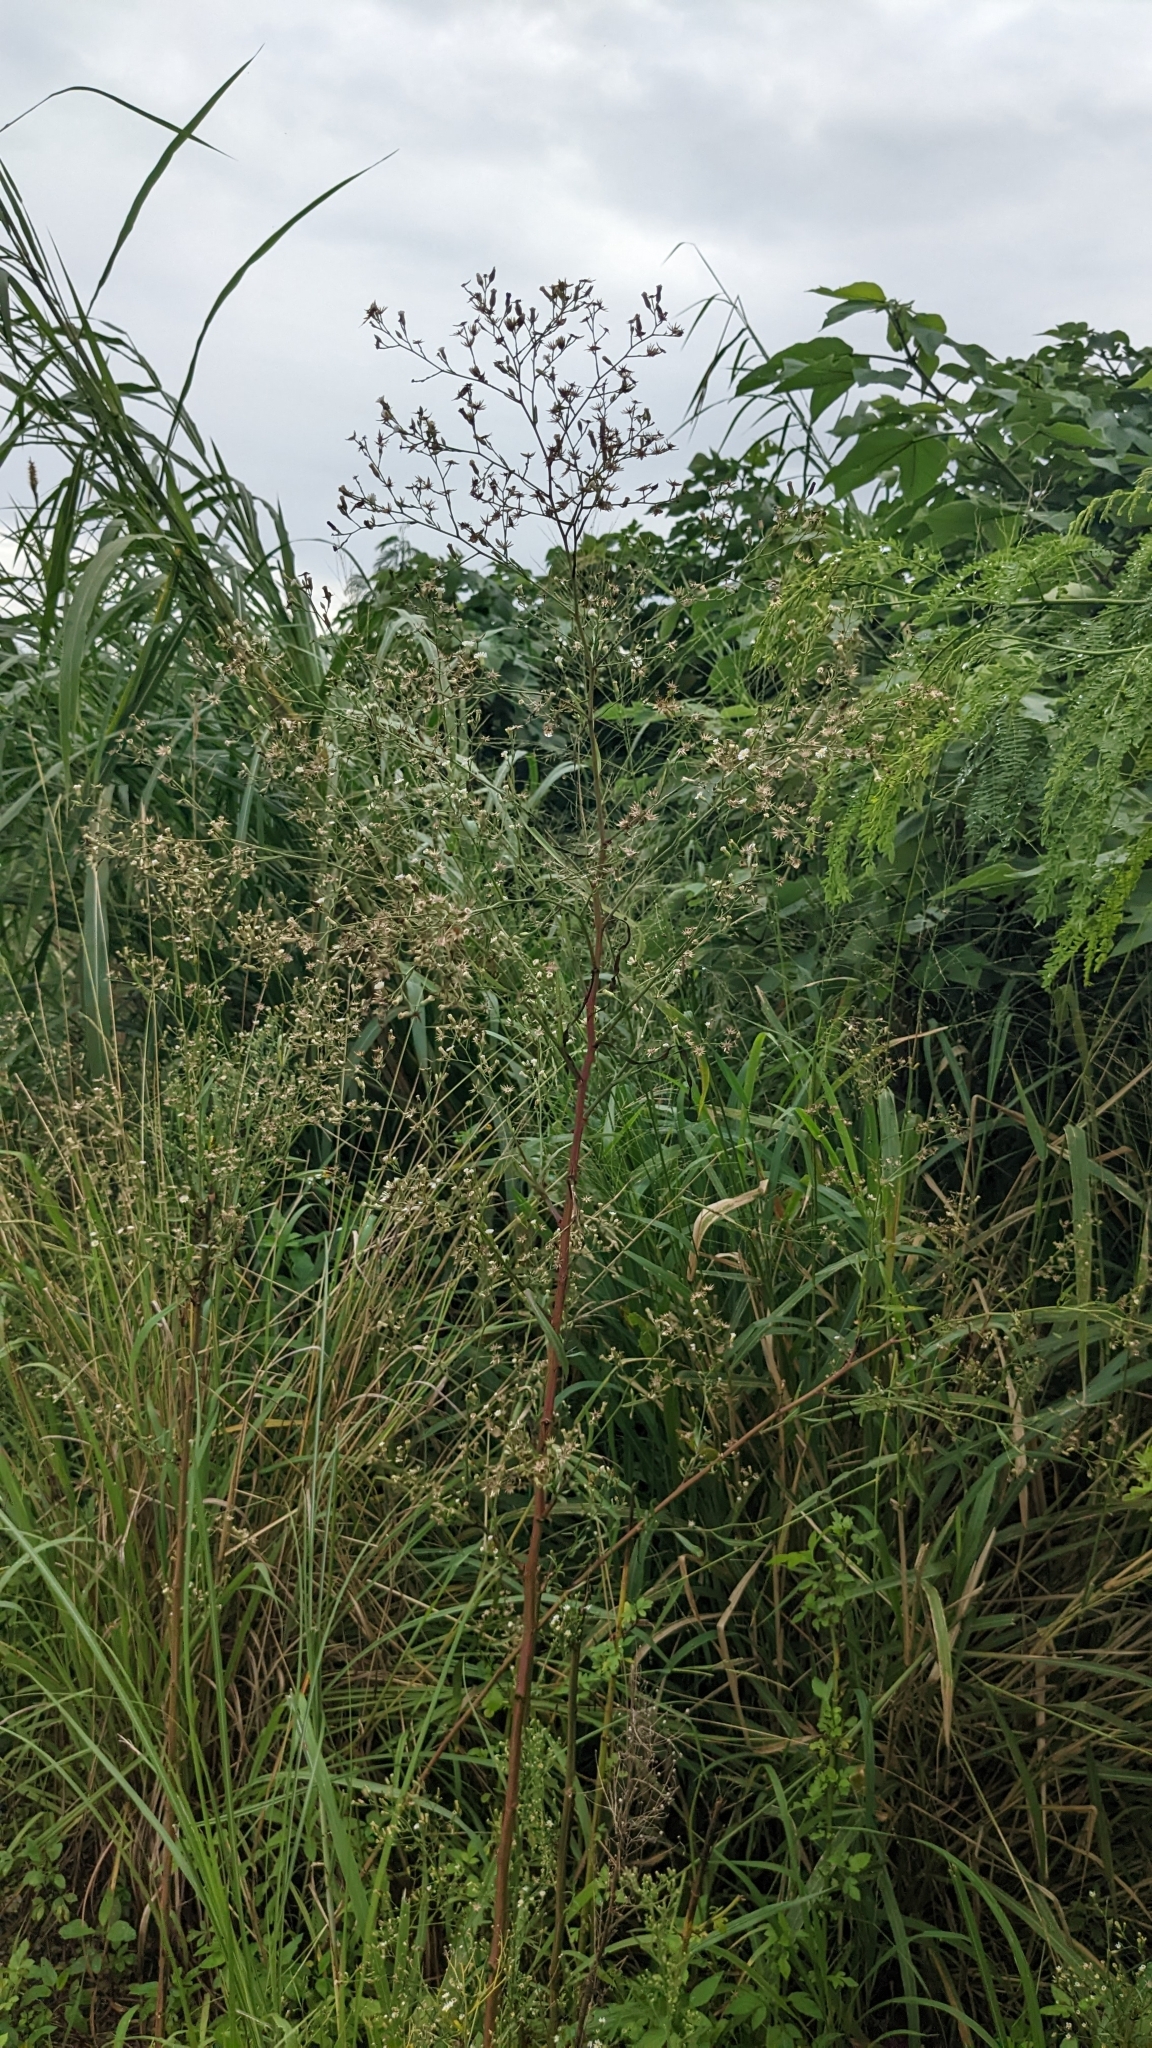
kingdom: Plantae
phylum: Tracheophyta
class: Magnoliopsida
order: Asterales
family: Asteraceae
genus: Symphyotrichum
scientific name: Symphyotrichum subulatum
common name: Annual saltmarsh aster
